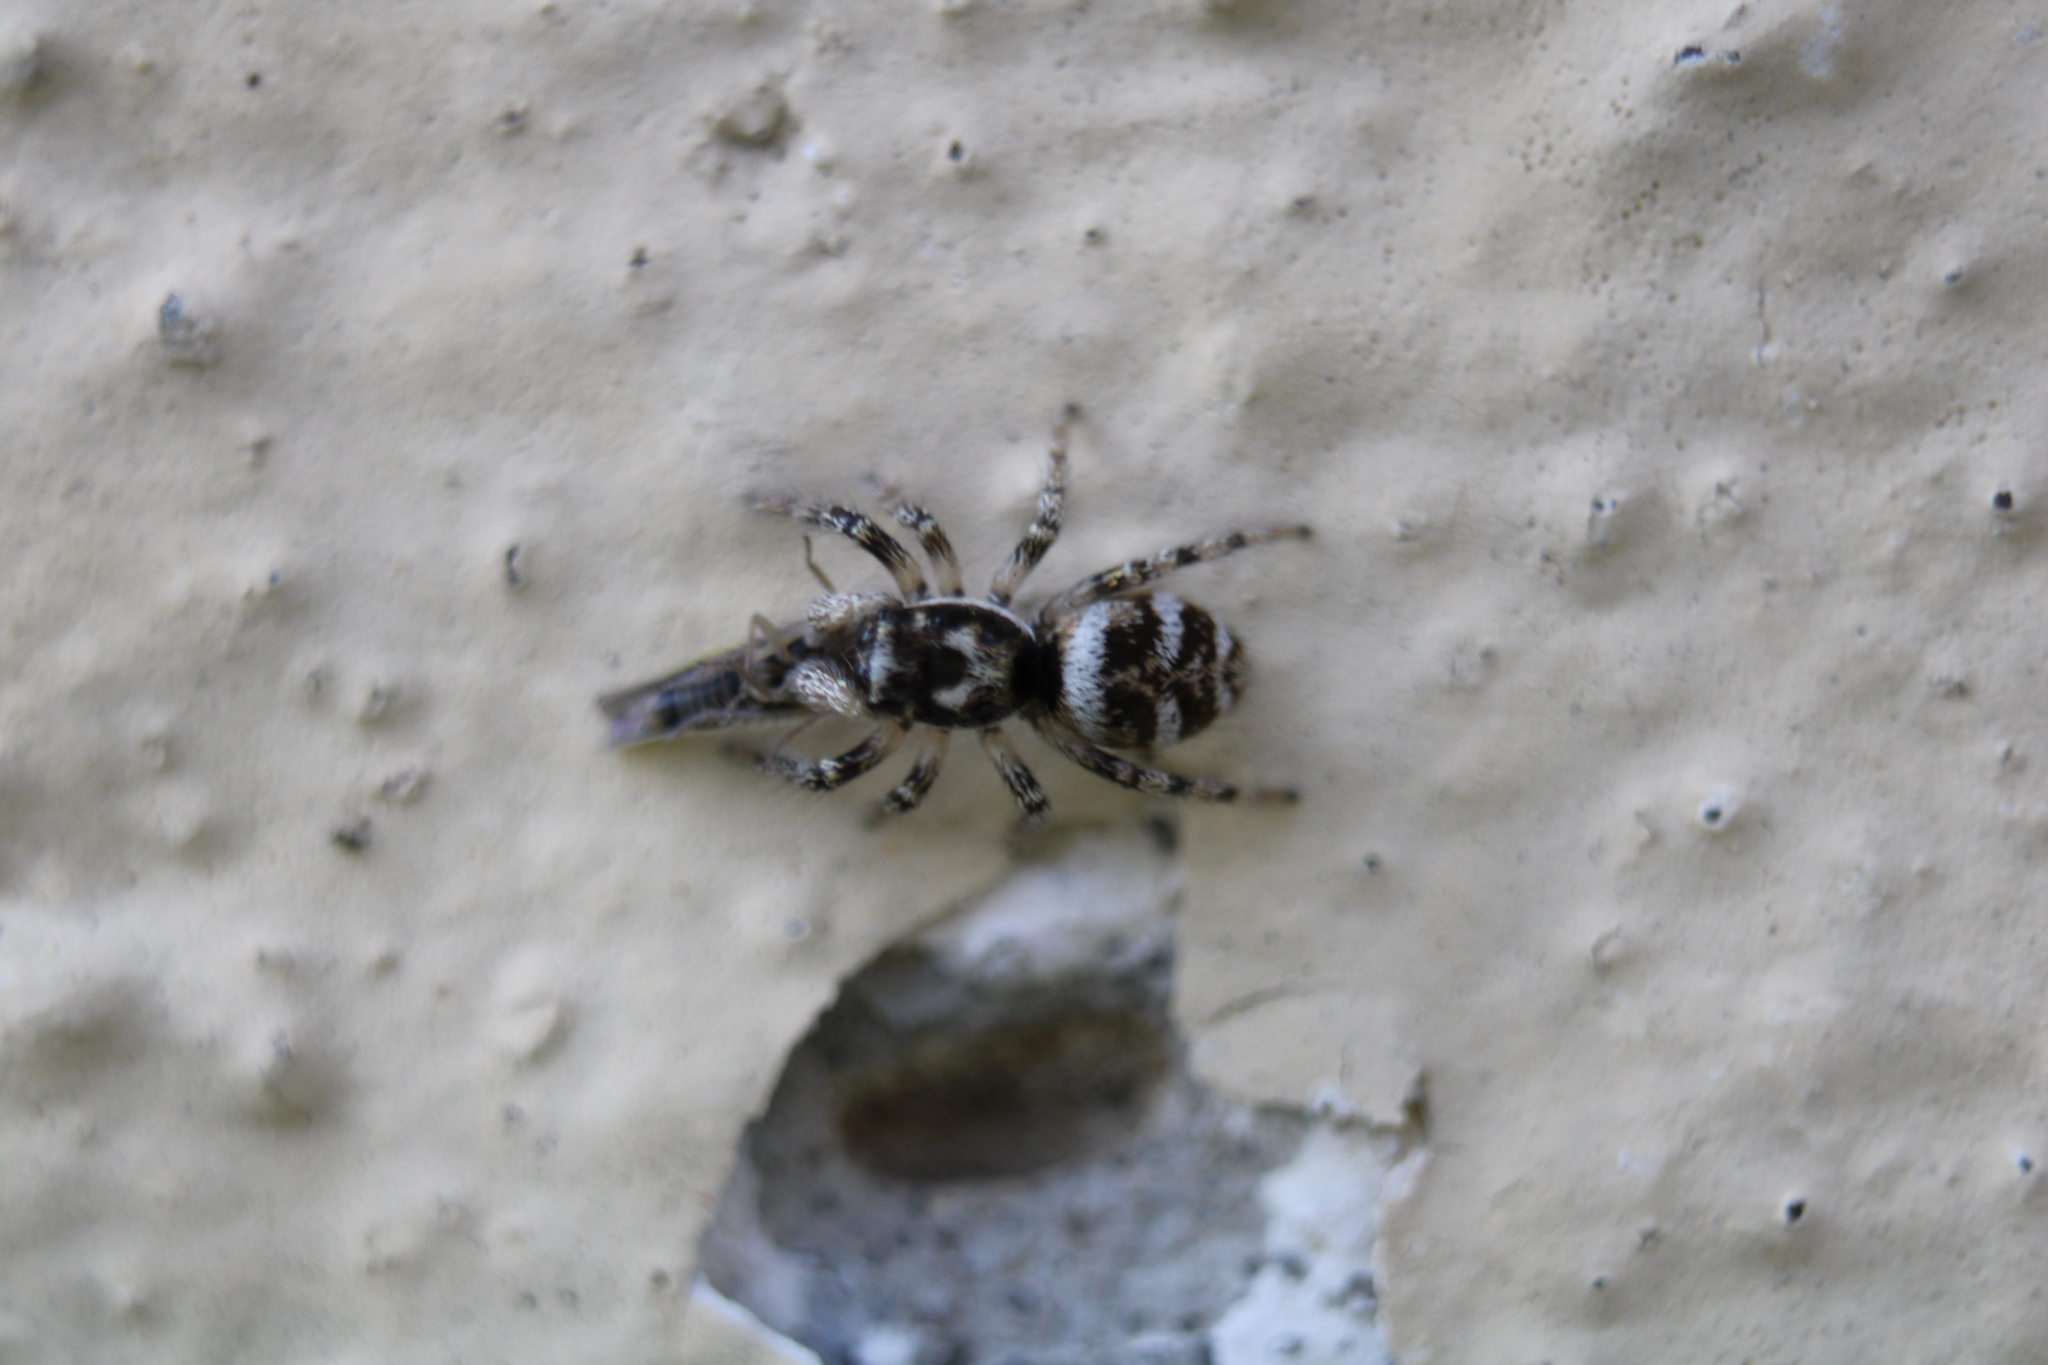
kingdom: Animalia
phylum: Arthropoda
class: Arachnida
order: Araneae
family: Salticidae
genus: Salticus
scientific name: Salticus scenicus
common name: Zebra jumper
